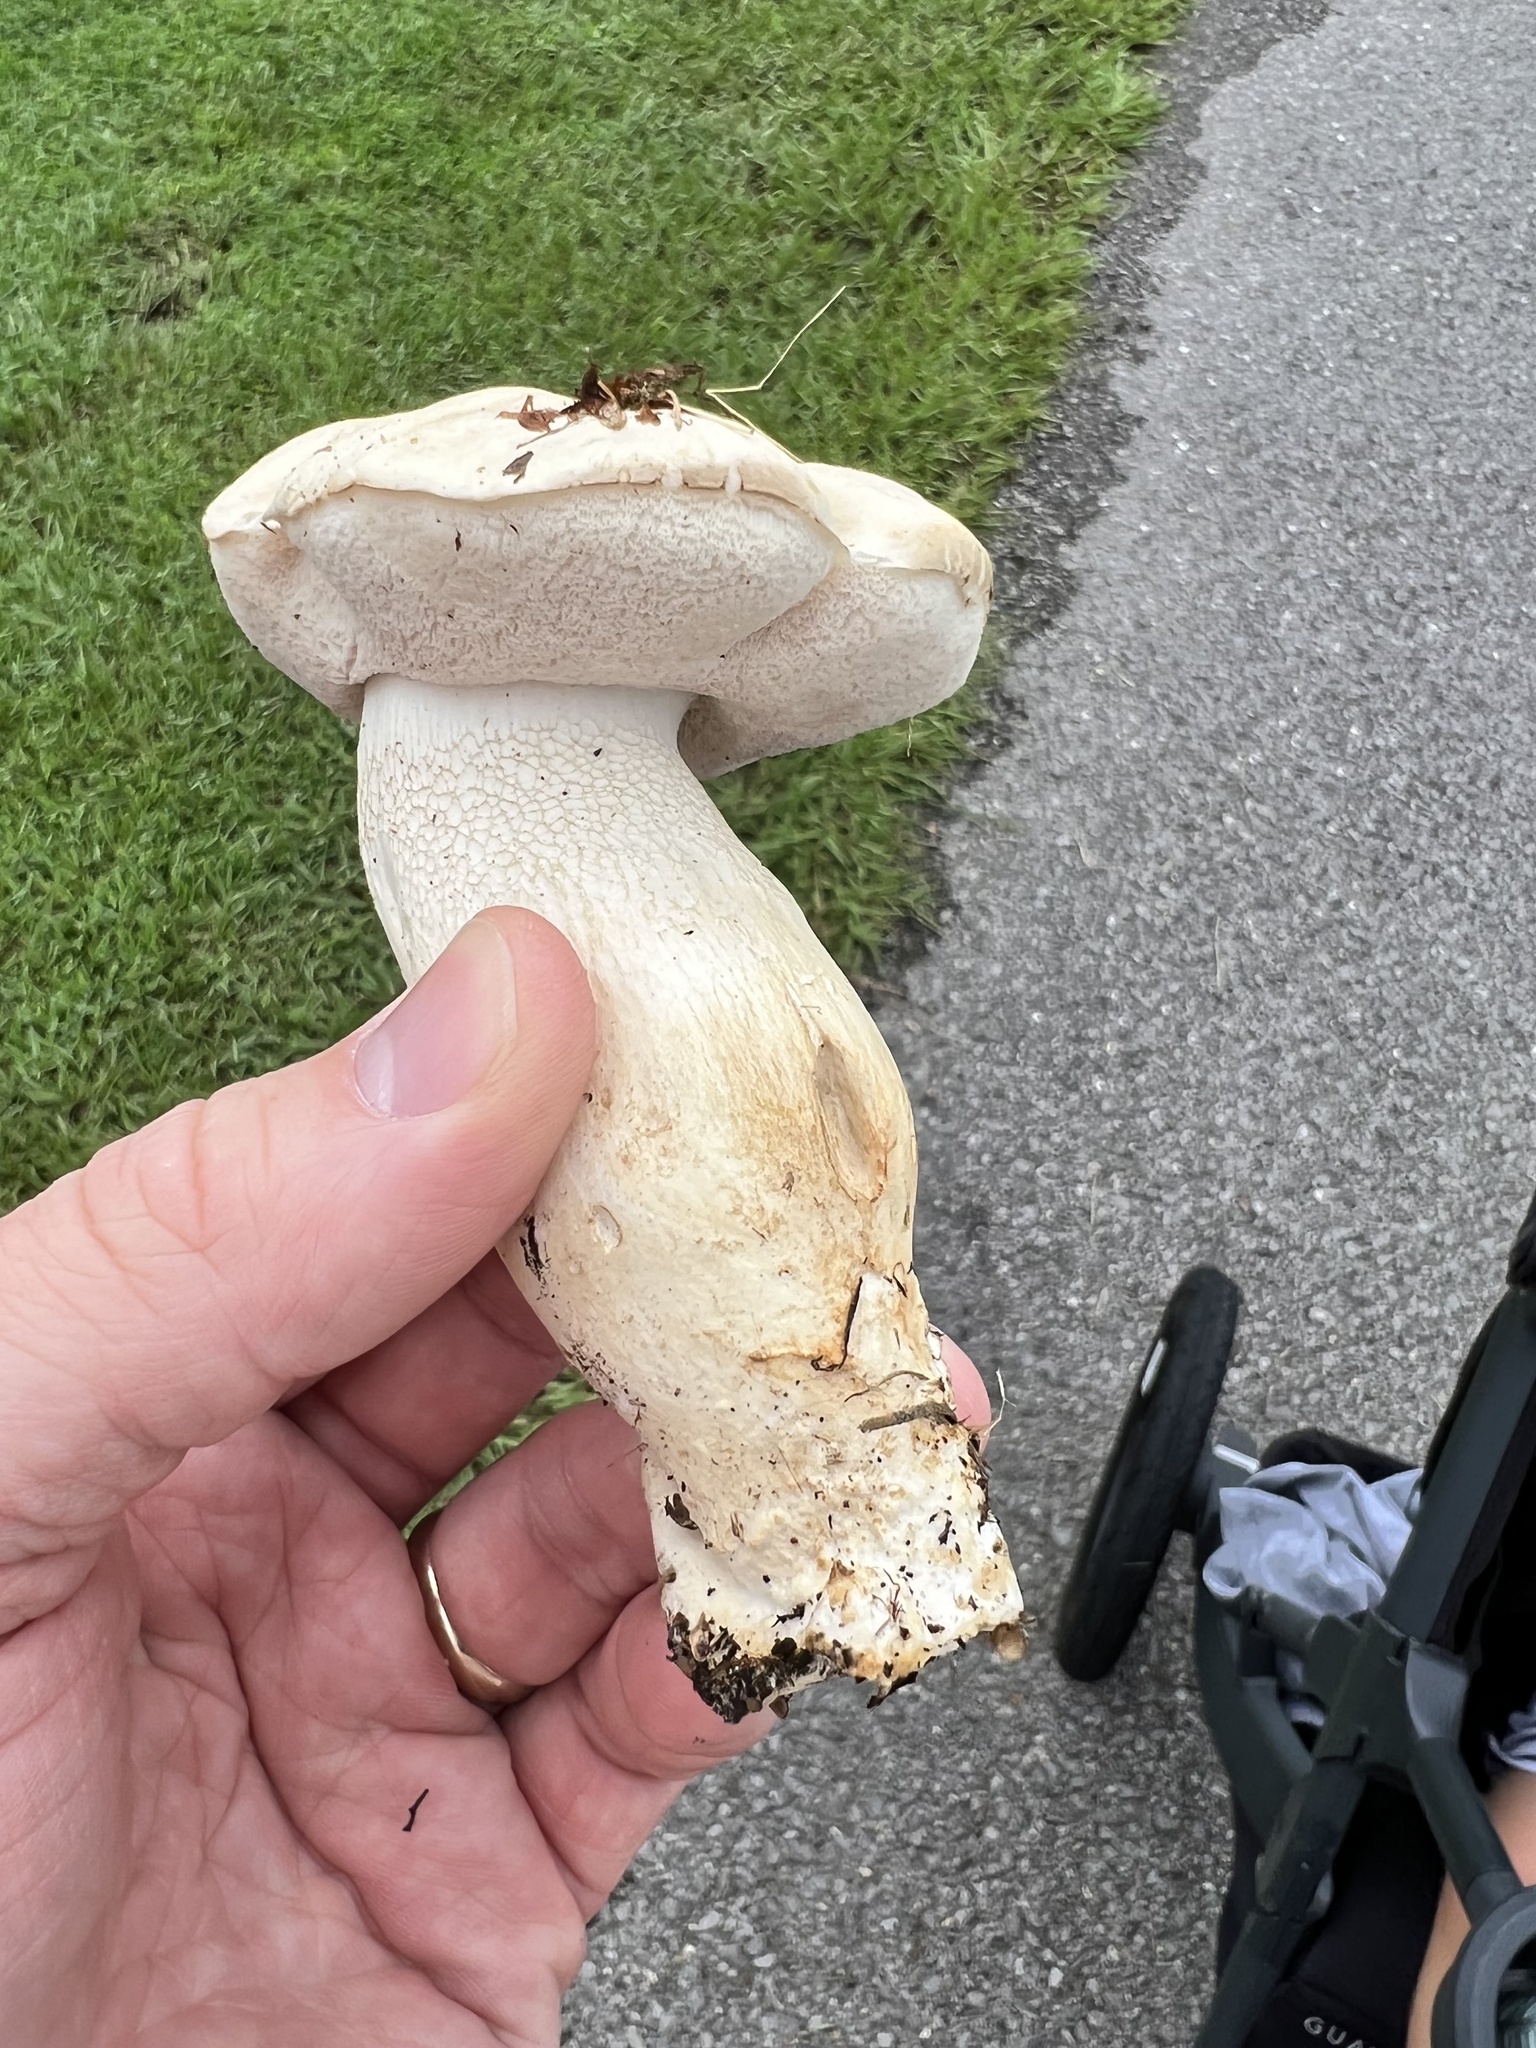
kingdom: Fungi
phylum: Basidiomycota
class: Agaricomycetes
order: Boletales
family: Boletaceae
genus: Tylopilus
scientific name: Tylopilus rhoadsiae
